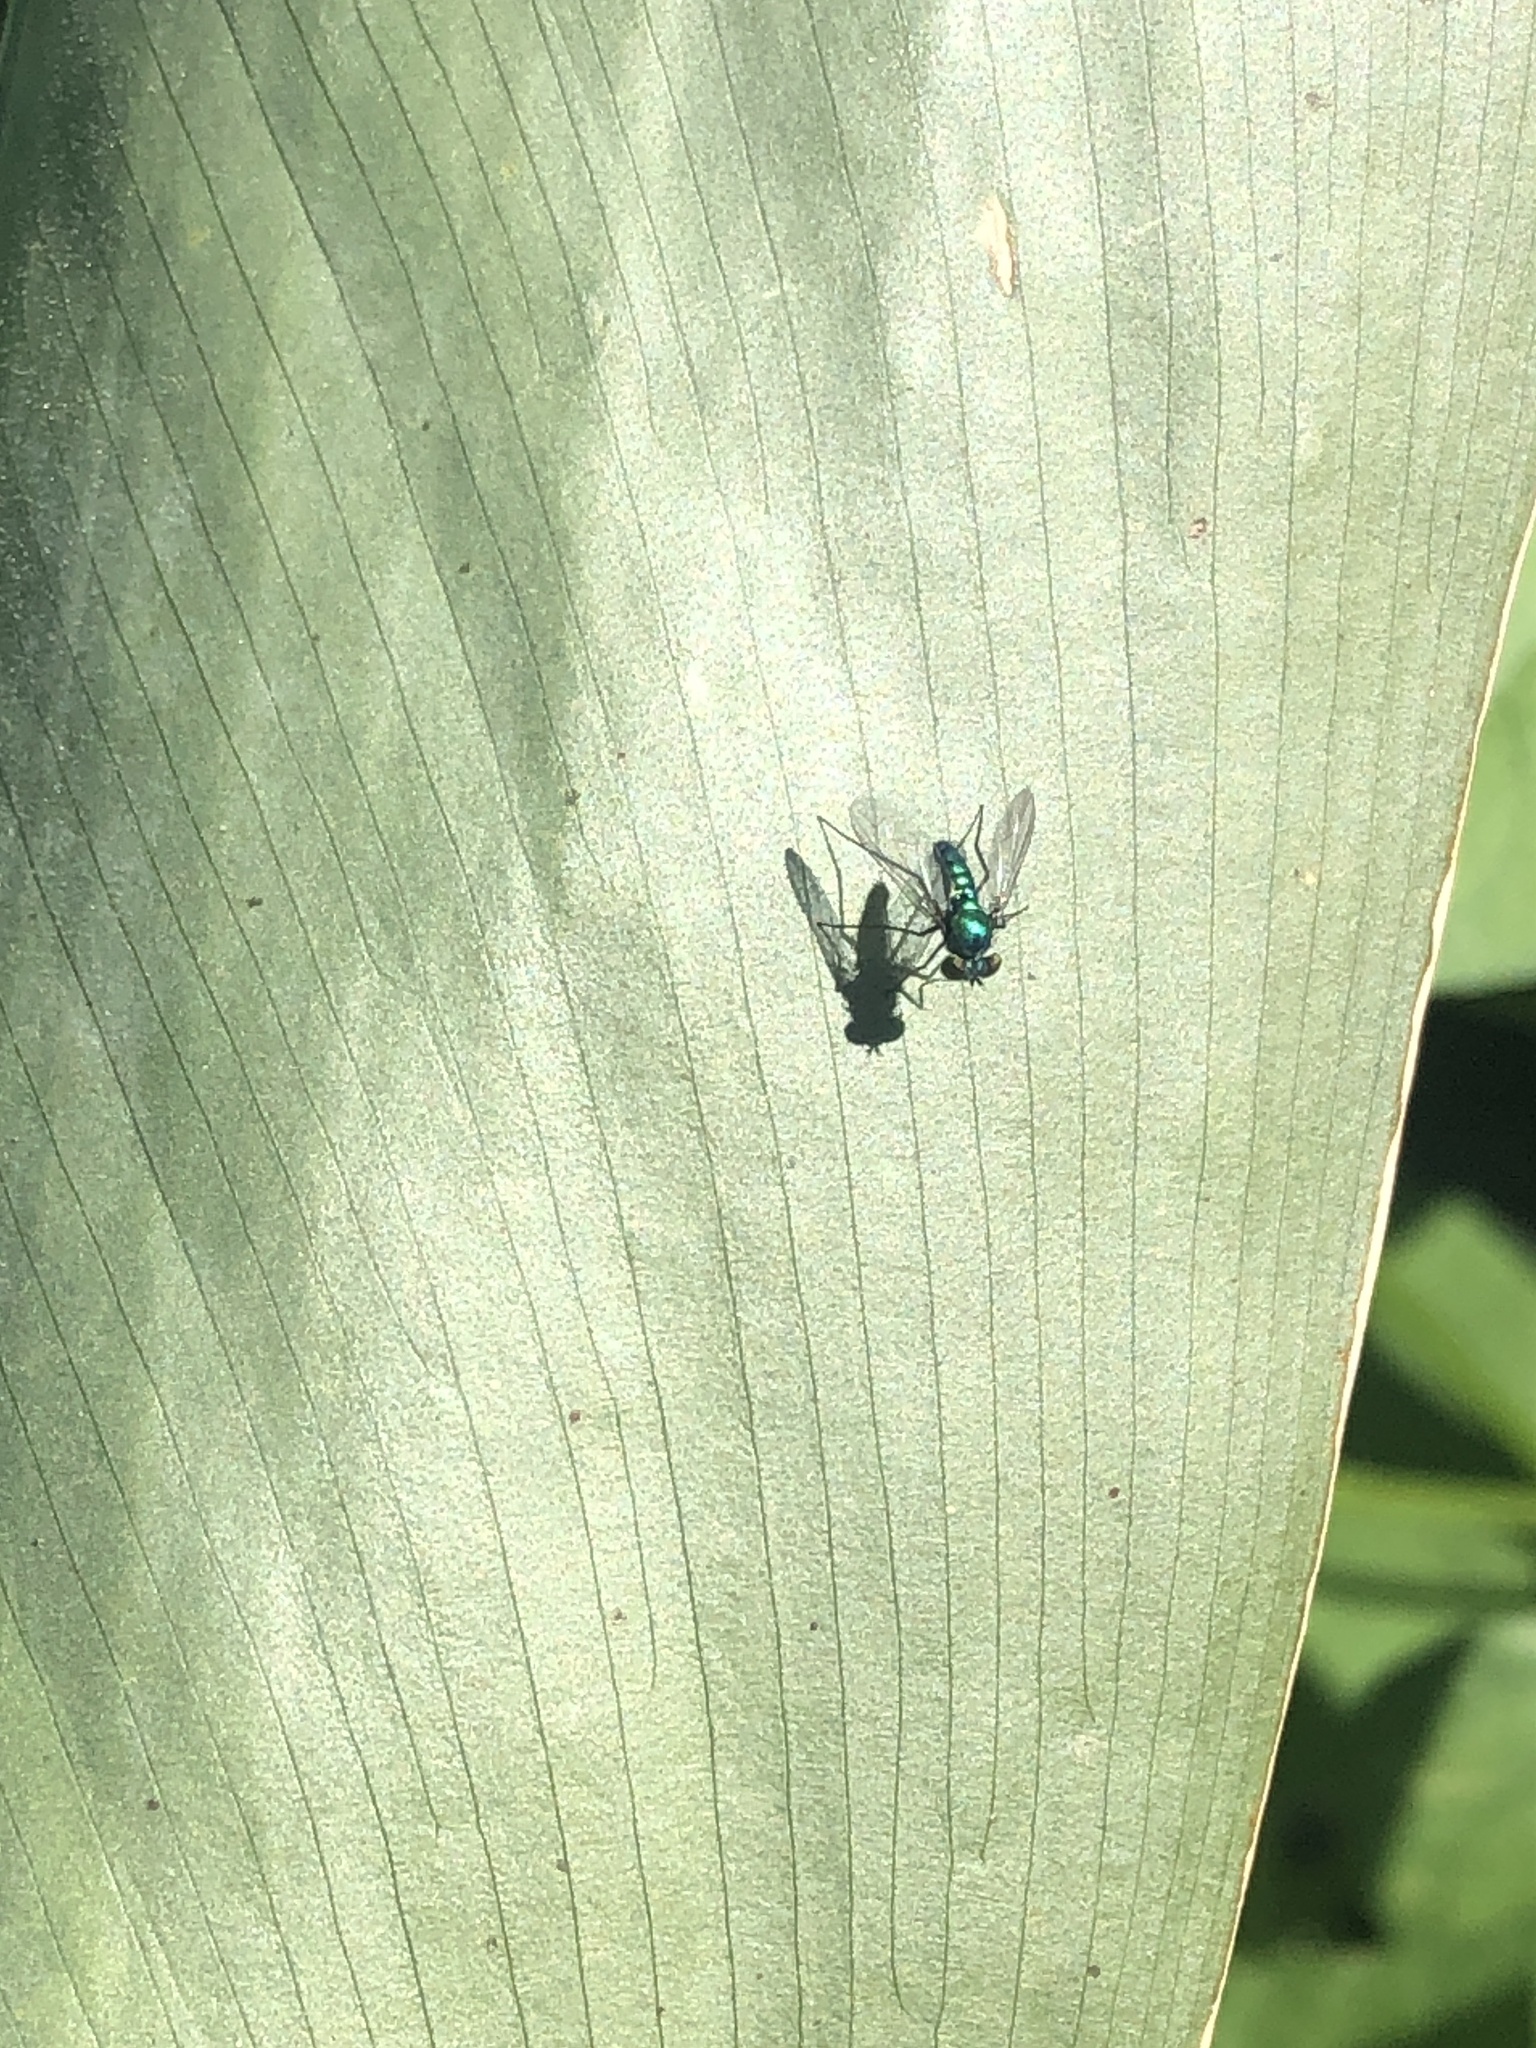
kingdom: Animalia
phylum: Arthropoda
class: Insecta
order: Diptera
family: Dolichopodidae
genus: Condylostylus
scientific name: Condylostylus purpureus
